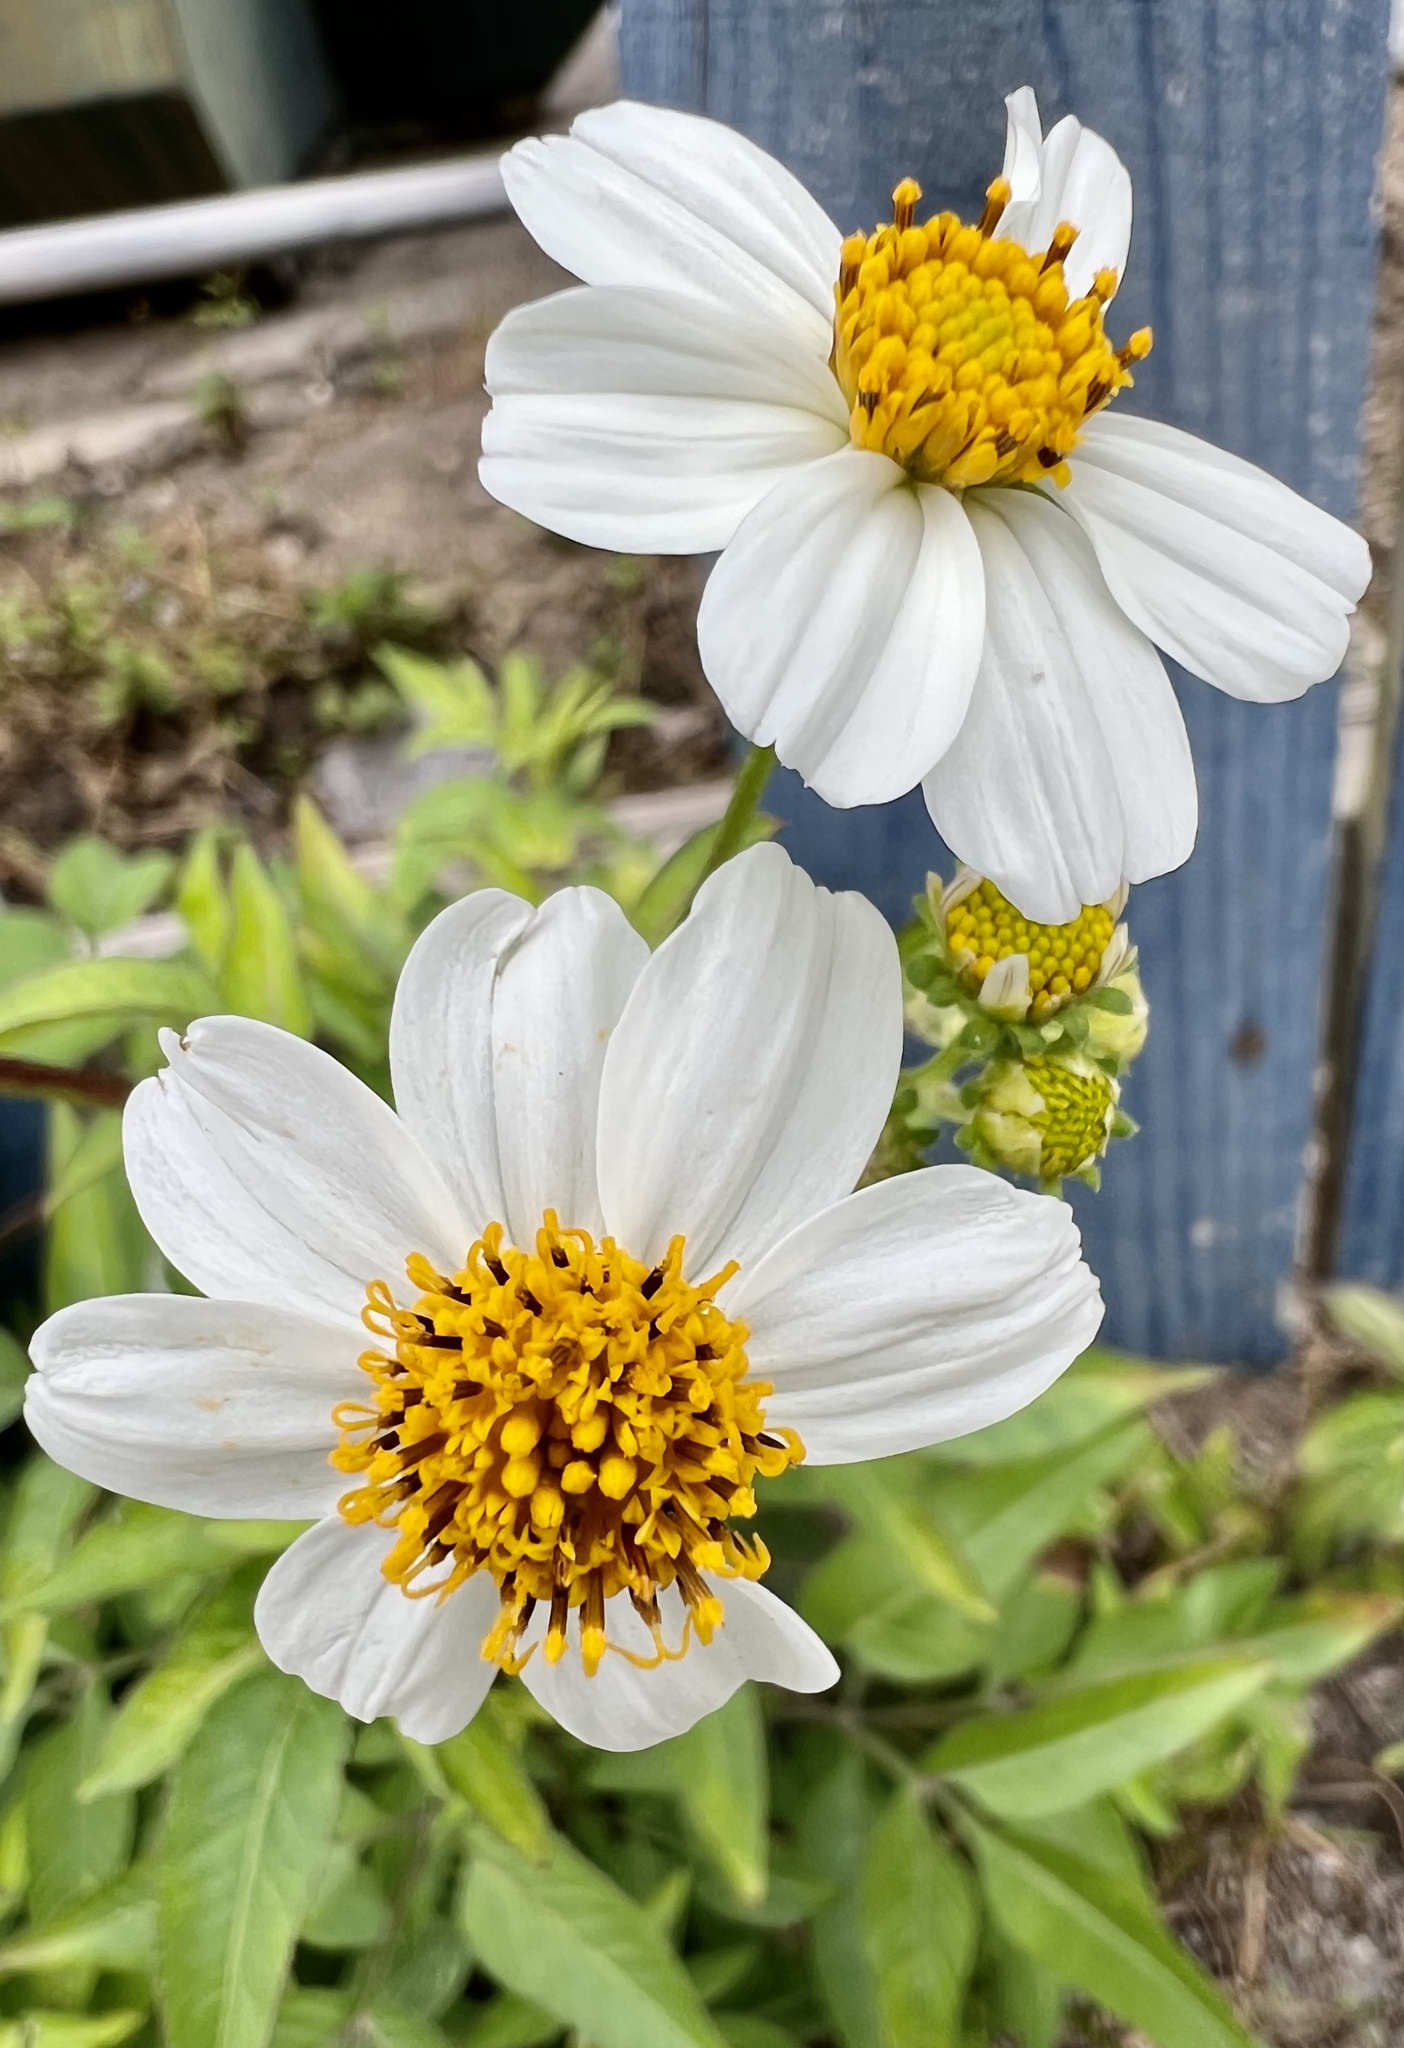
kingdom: Plantae
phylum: Tracheophyta
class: Magnoliopsida
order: Asterales
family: Asteraceae
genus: Bidens
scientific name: Bidens alba
